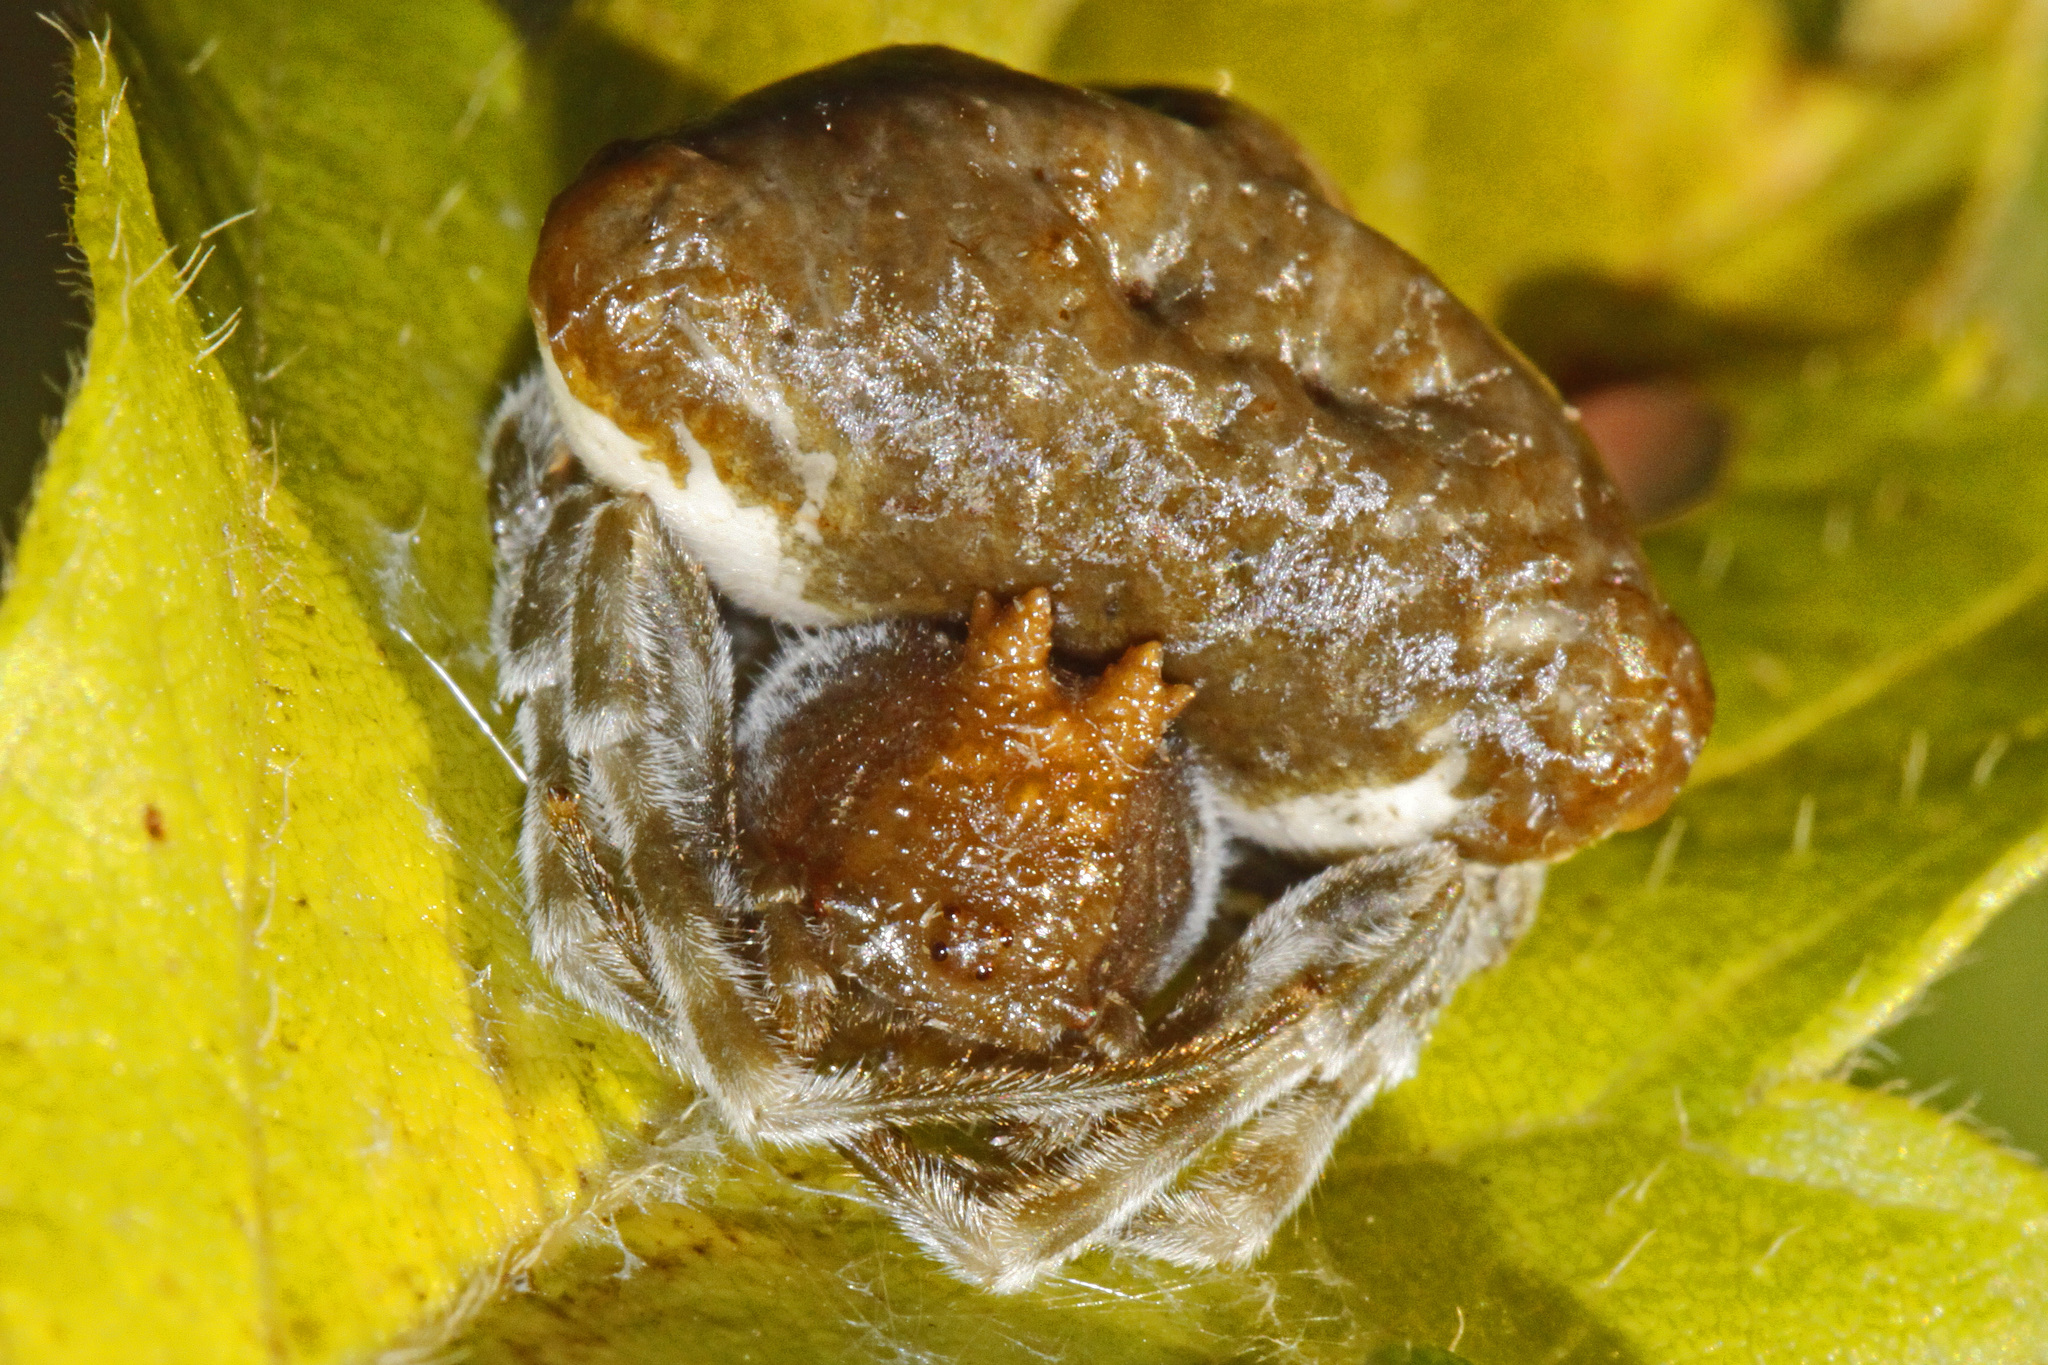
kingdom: Animalia
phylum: Arthropoda
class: Arachnida
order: Araneae
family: Araneidae
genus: Mastophora
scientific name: Mastophora phrynosoma
